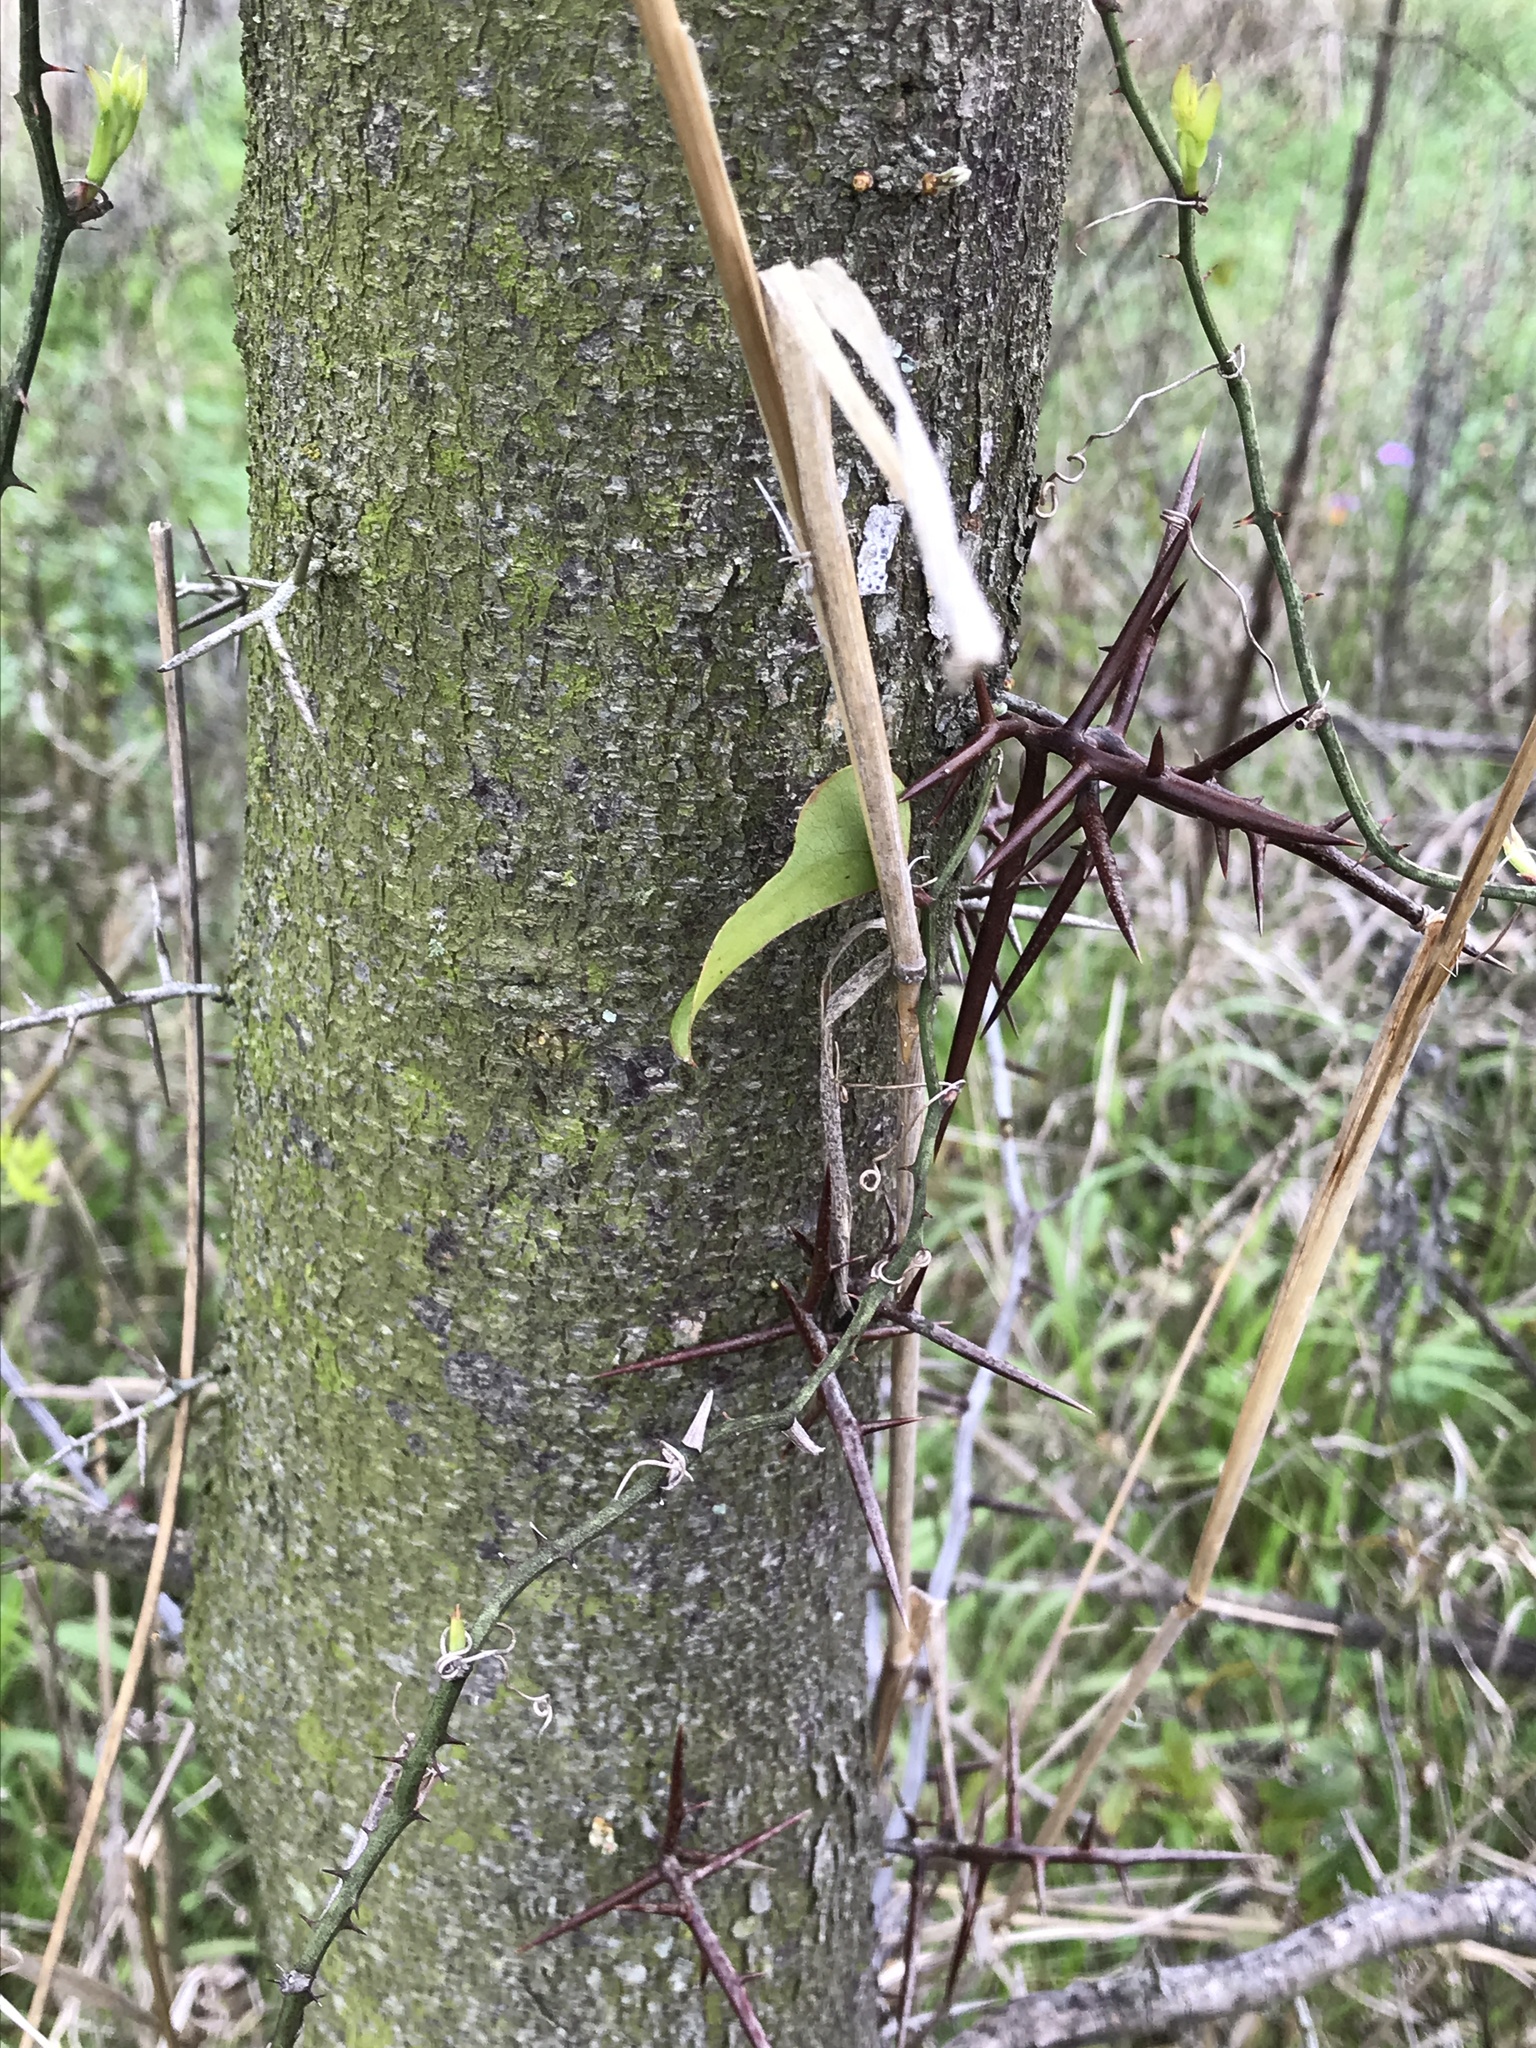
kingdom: Plantae
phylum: Tracheophyta
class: Magnoliopsida
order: Fabales
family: Fabaceae
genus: Gleditsia
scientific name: Gleditsia triacanthos
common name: Common honeylocust
